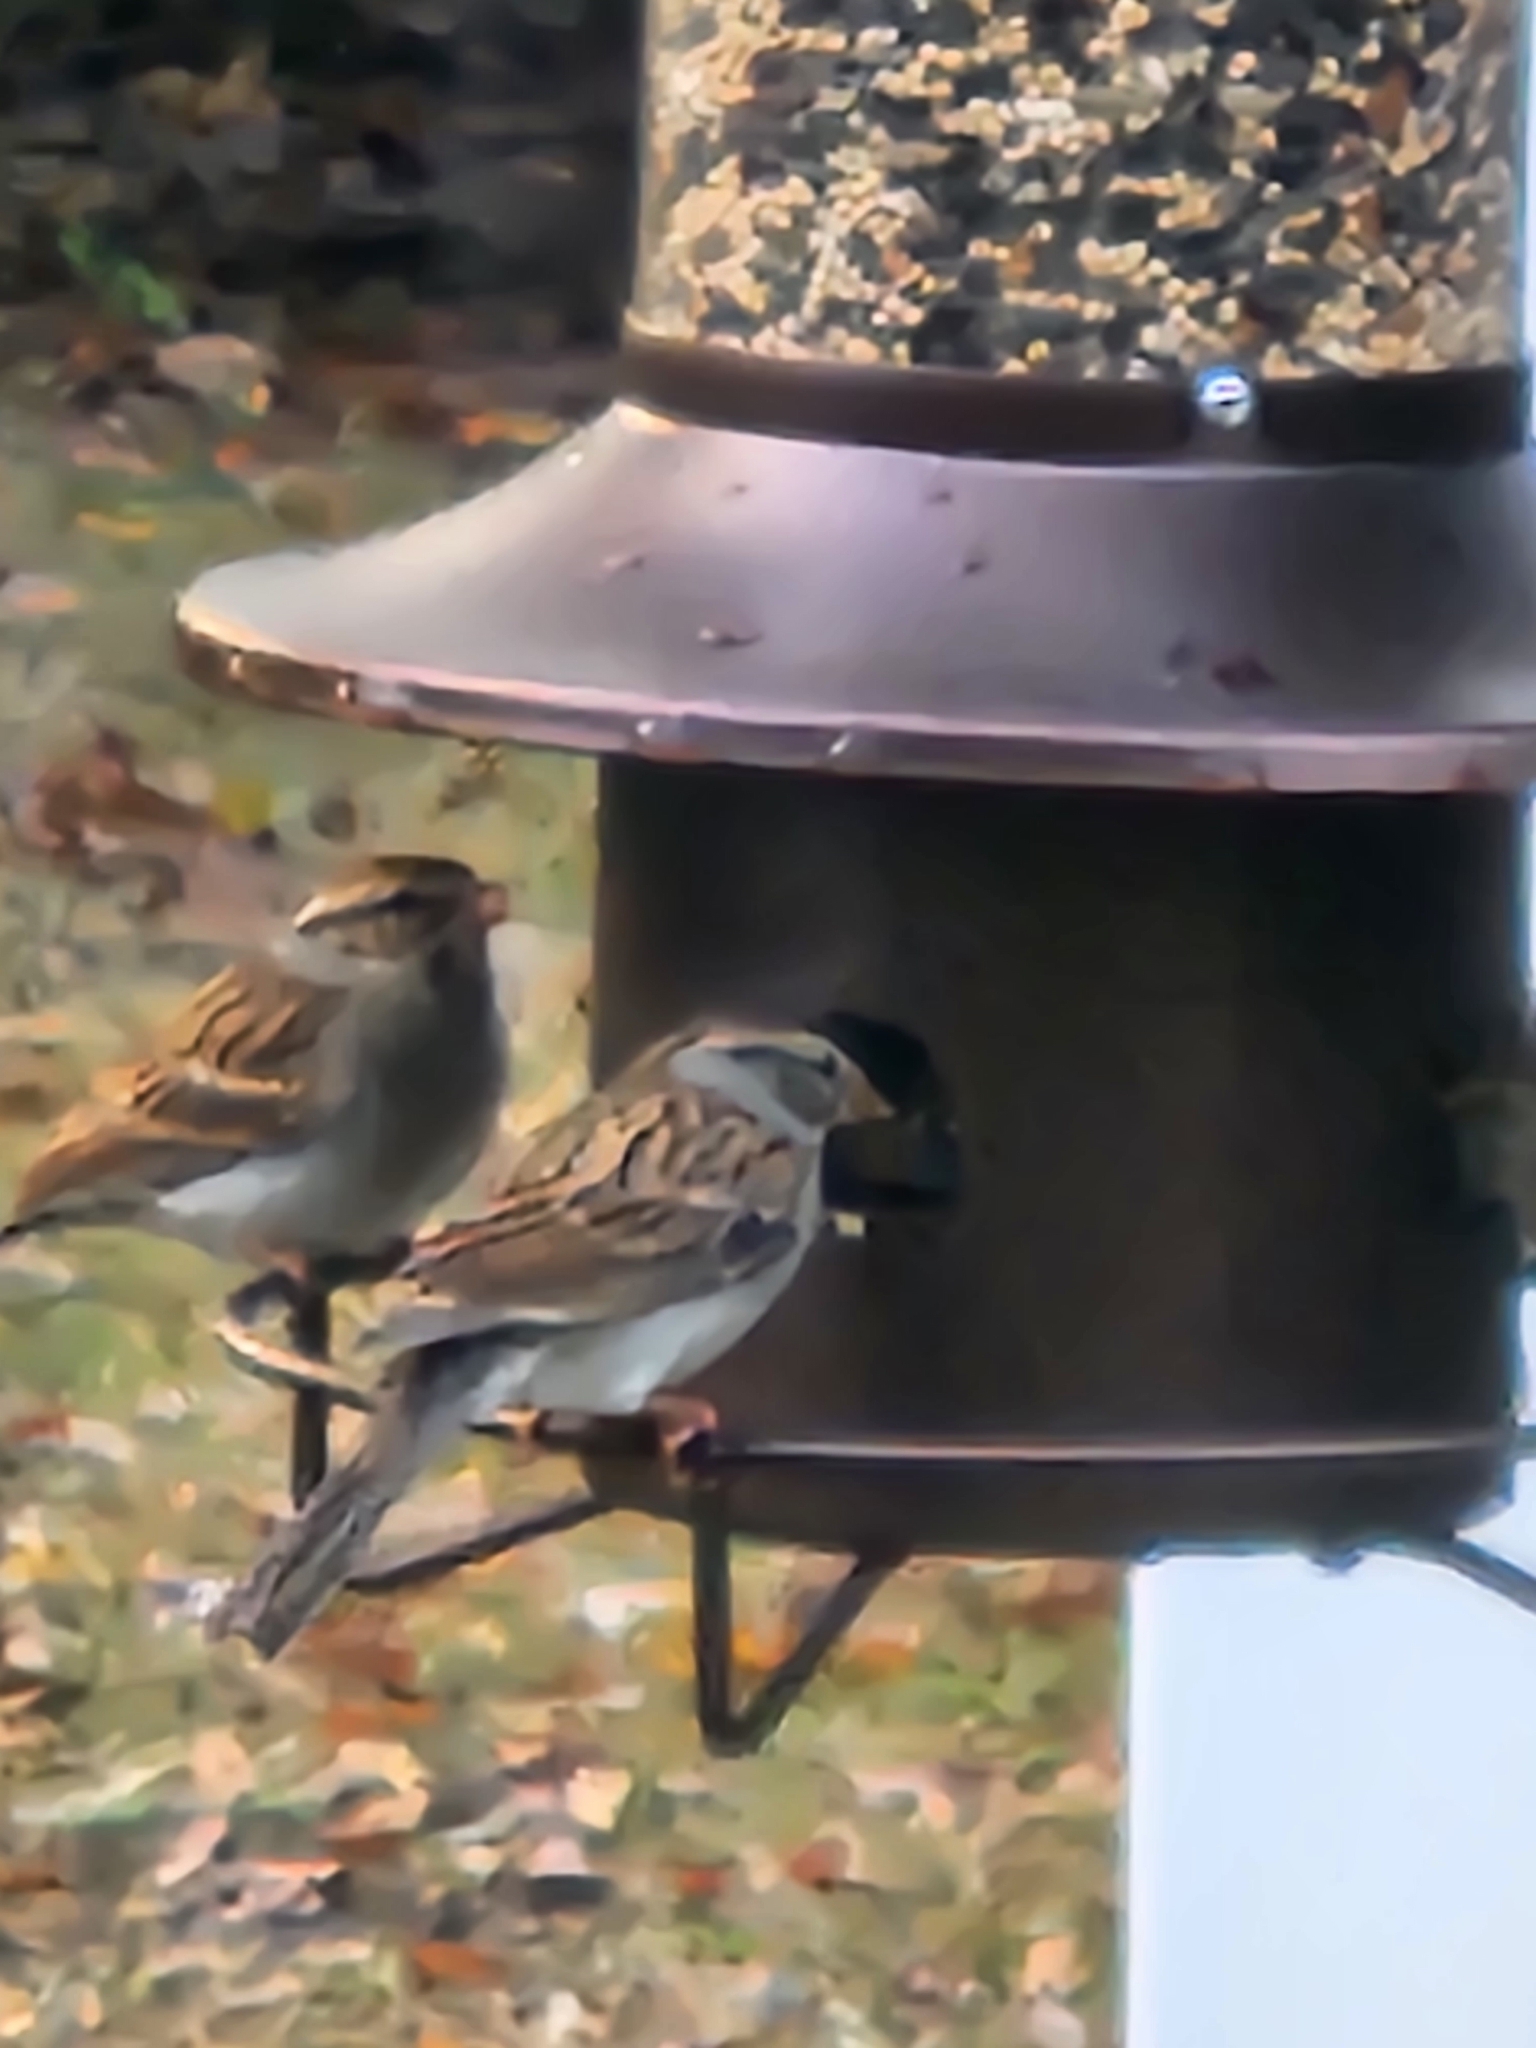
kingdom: Animalia
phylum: Chordata
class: Aves
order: Passeriformes
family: Passerellidae
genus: Spizella
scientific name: Spizella passerina
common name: Chipping sparrow
